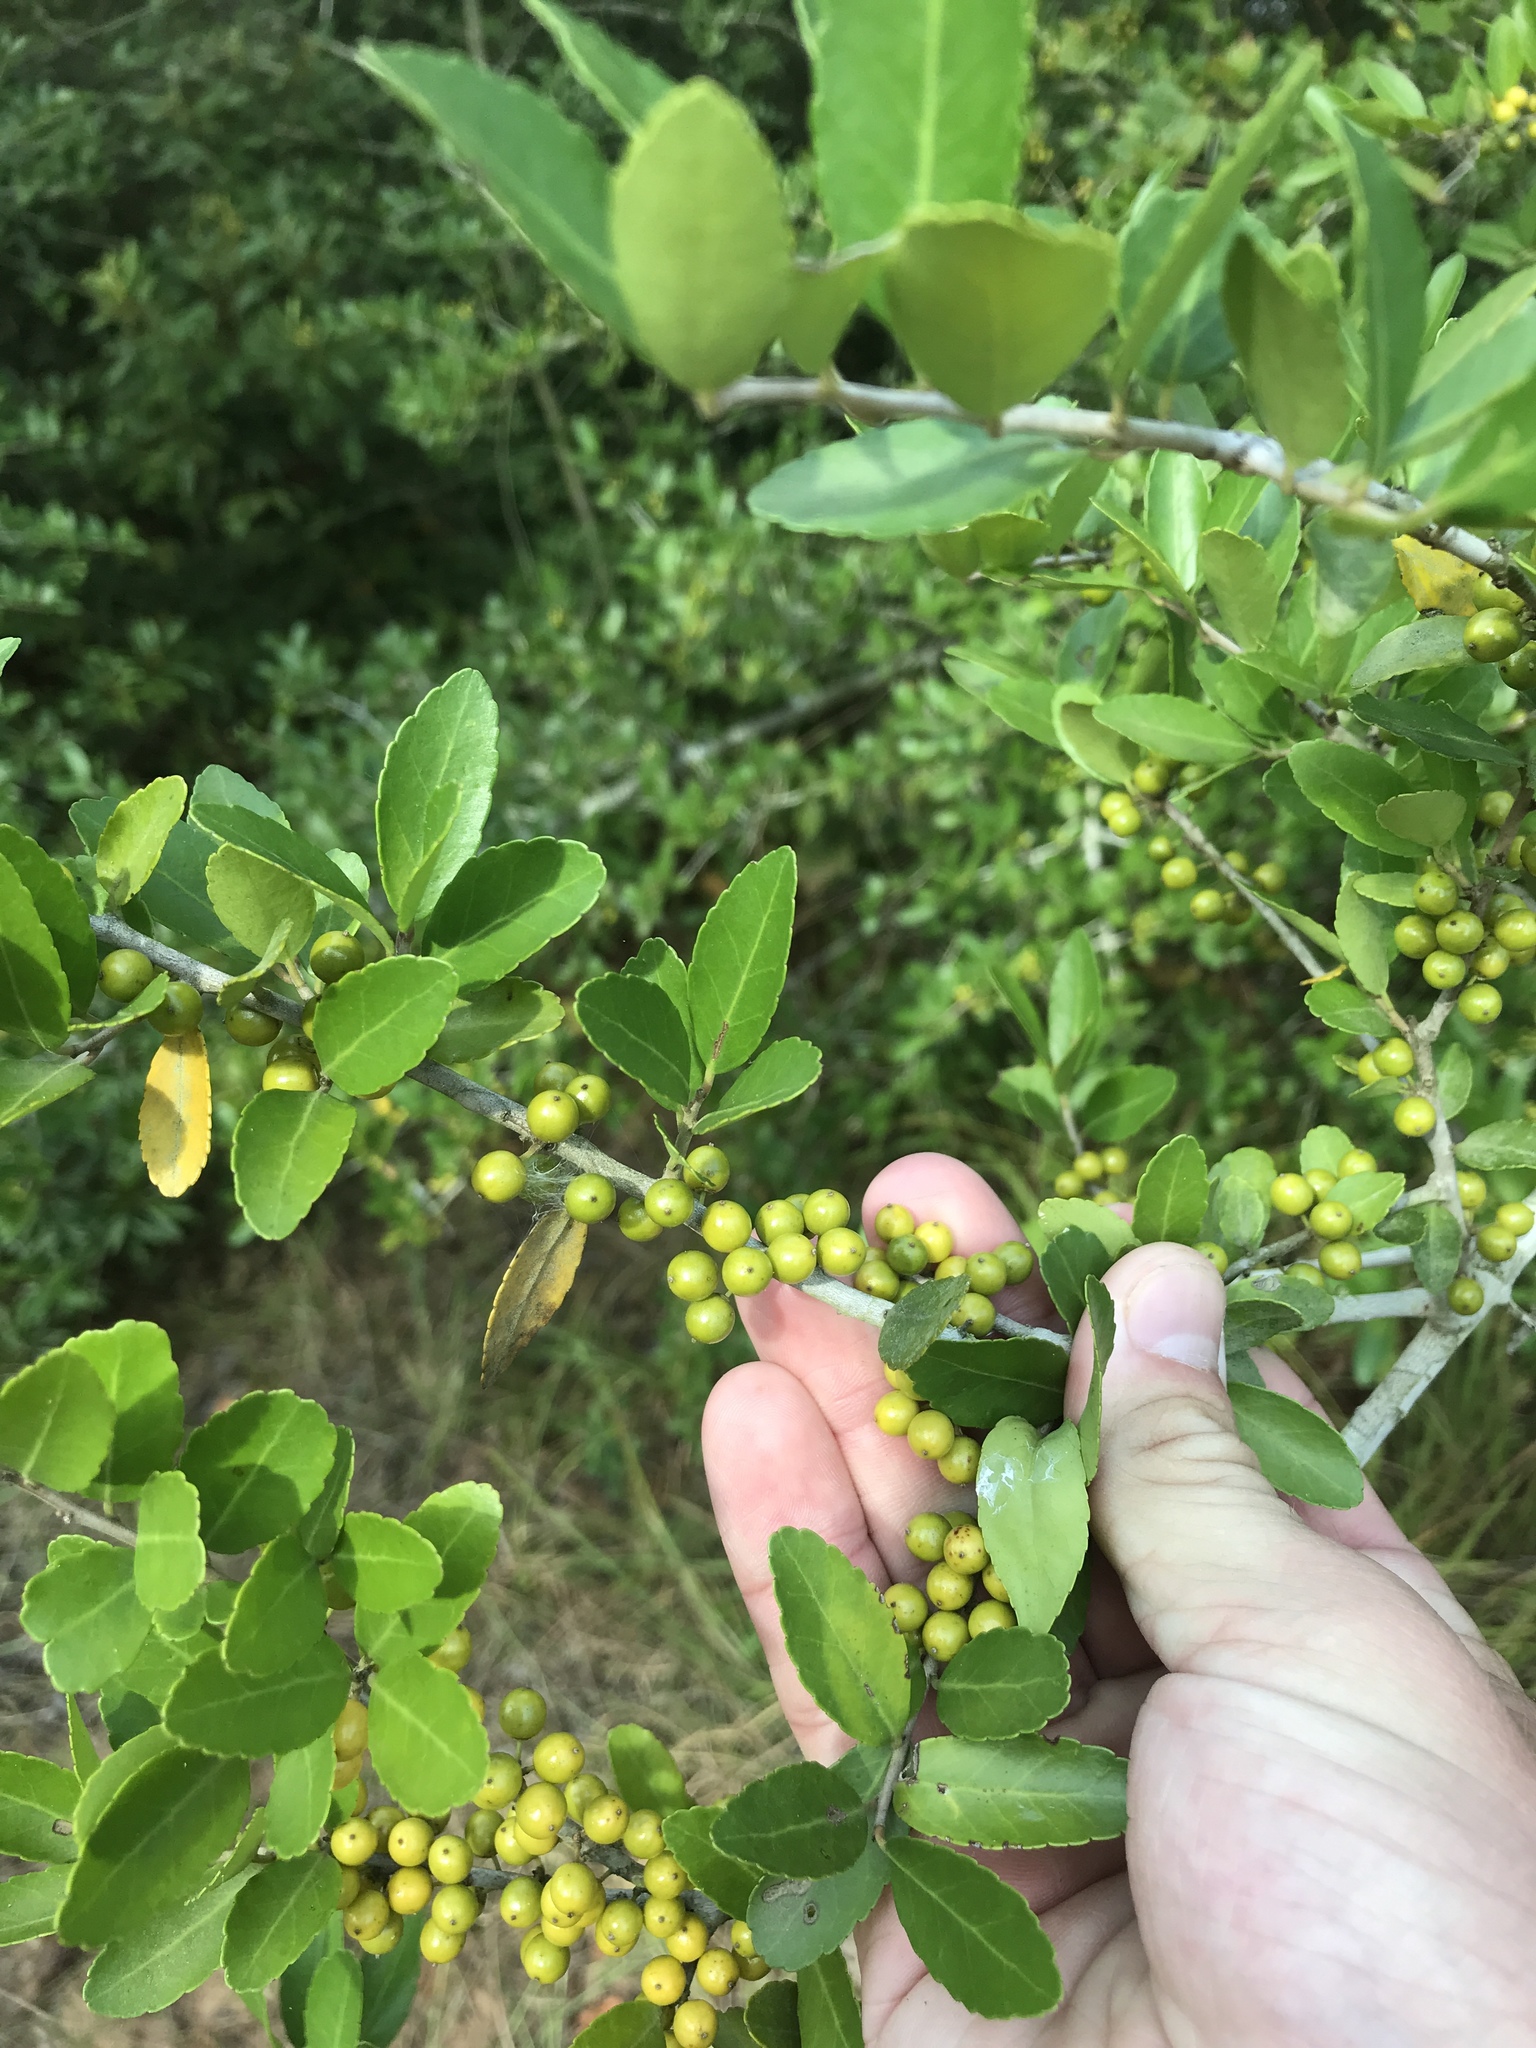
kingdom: Plantae
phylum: Tracheophyta
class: Magnoliopsida
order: Aquifoliales
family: Aquifoliaceae
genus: Ilex
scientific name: Ilex vomitoria
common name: Yaupon holly
